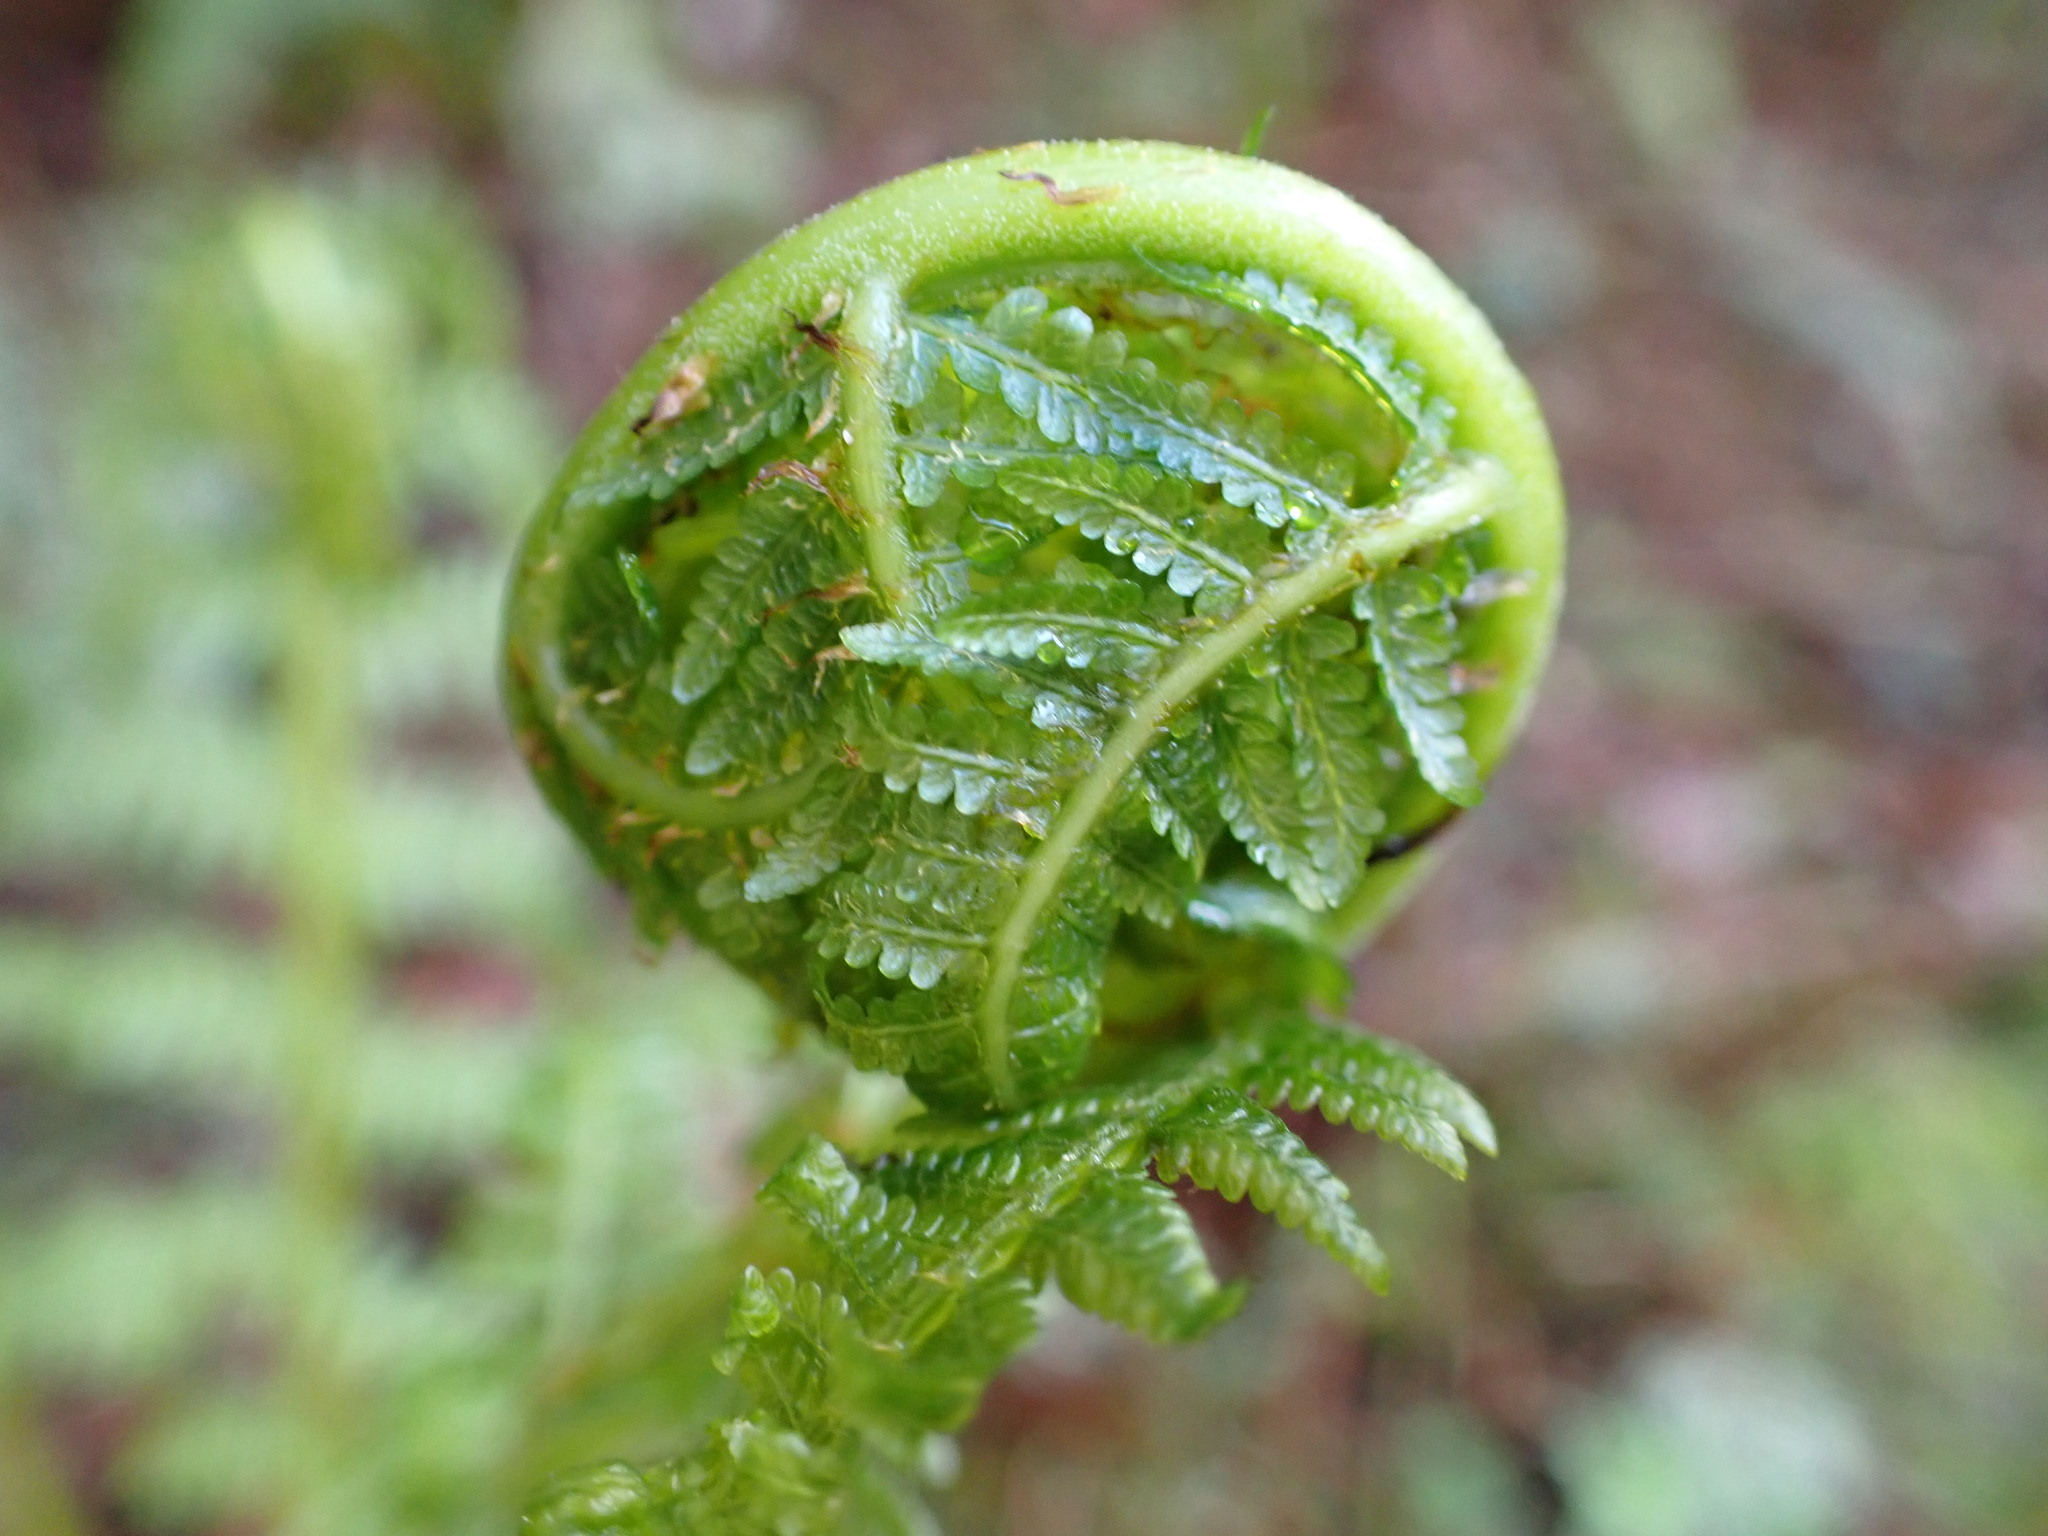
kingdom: Plantae
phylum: Tracheophyta
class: Polypodiopsida
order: Polypodiales
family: Athyriaceae
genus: Athyrium
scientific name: Athyrium filix-femina
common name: Lady fern
